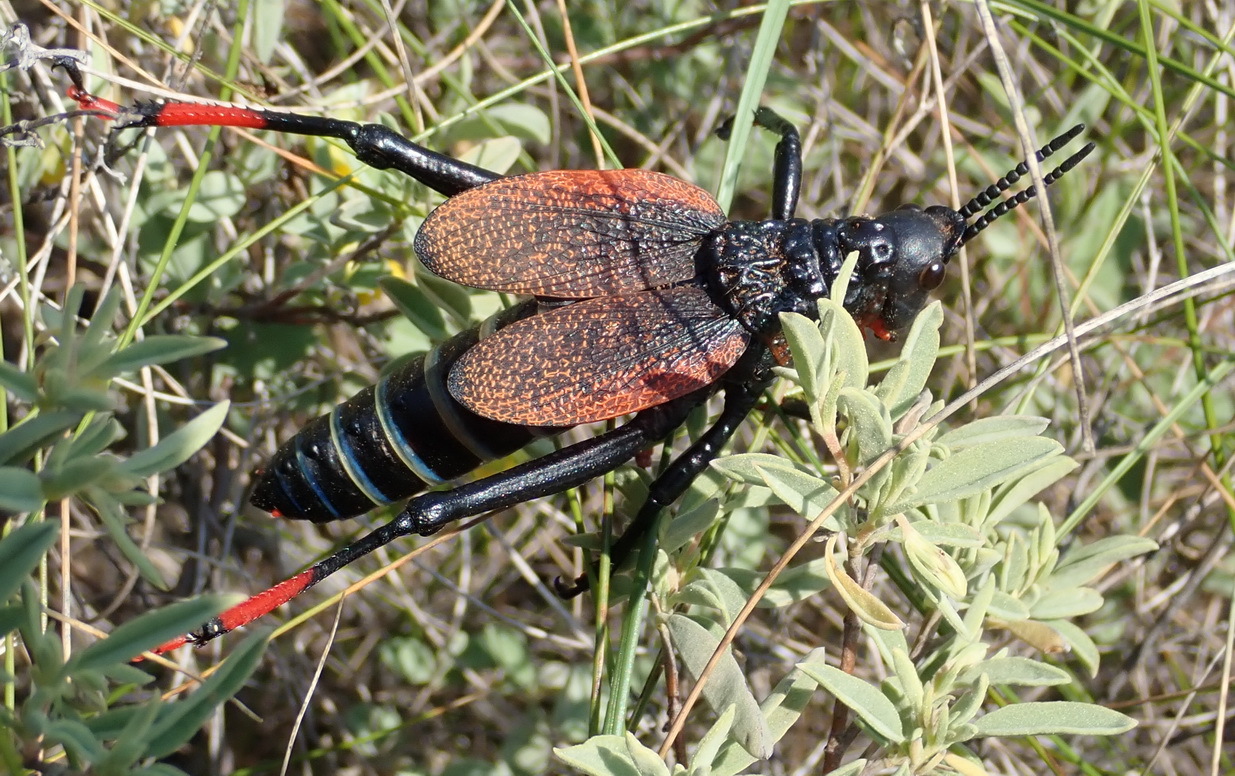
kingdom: Animalia
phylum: Arthropoda
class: Insecta
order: Orthoptera
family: Pyrgomorphidae
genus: Dictyophorus
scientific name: Dictyophorus spumans
